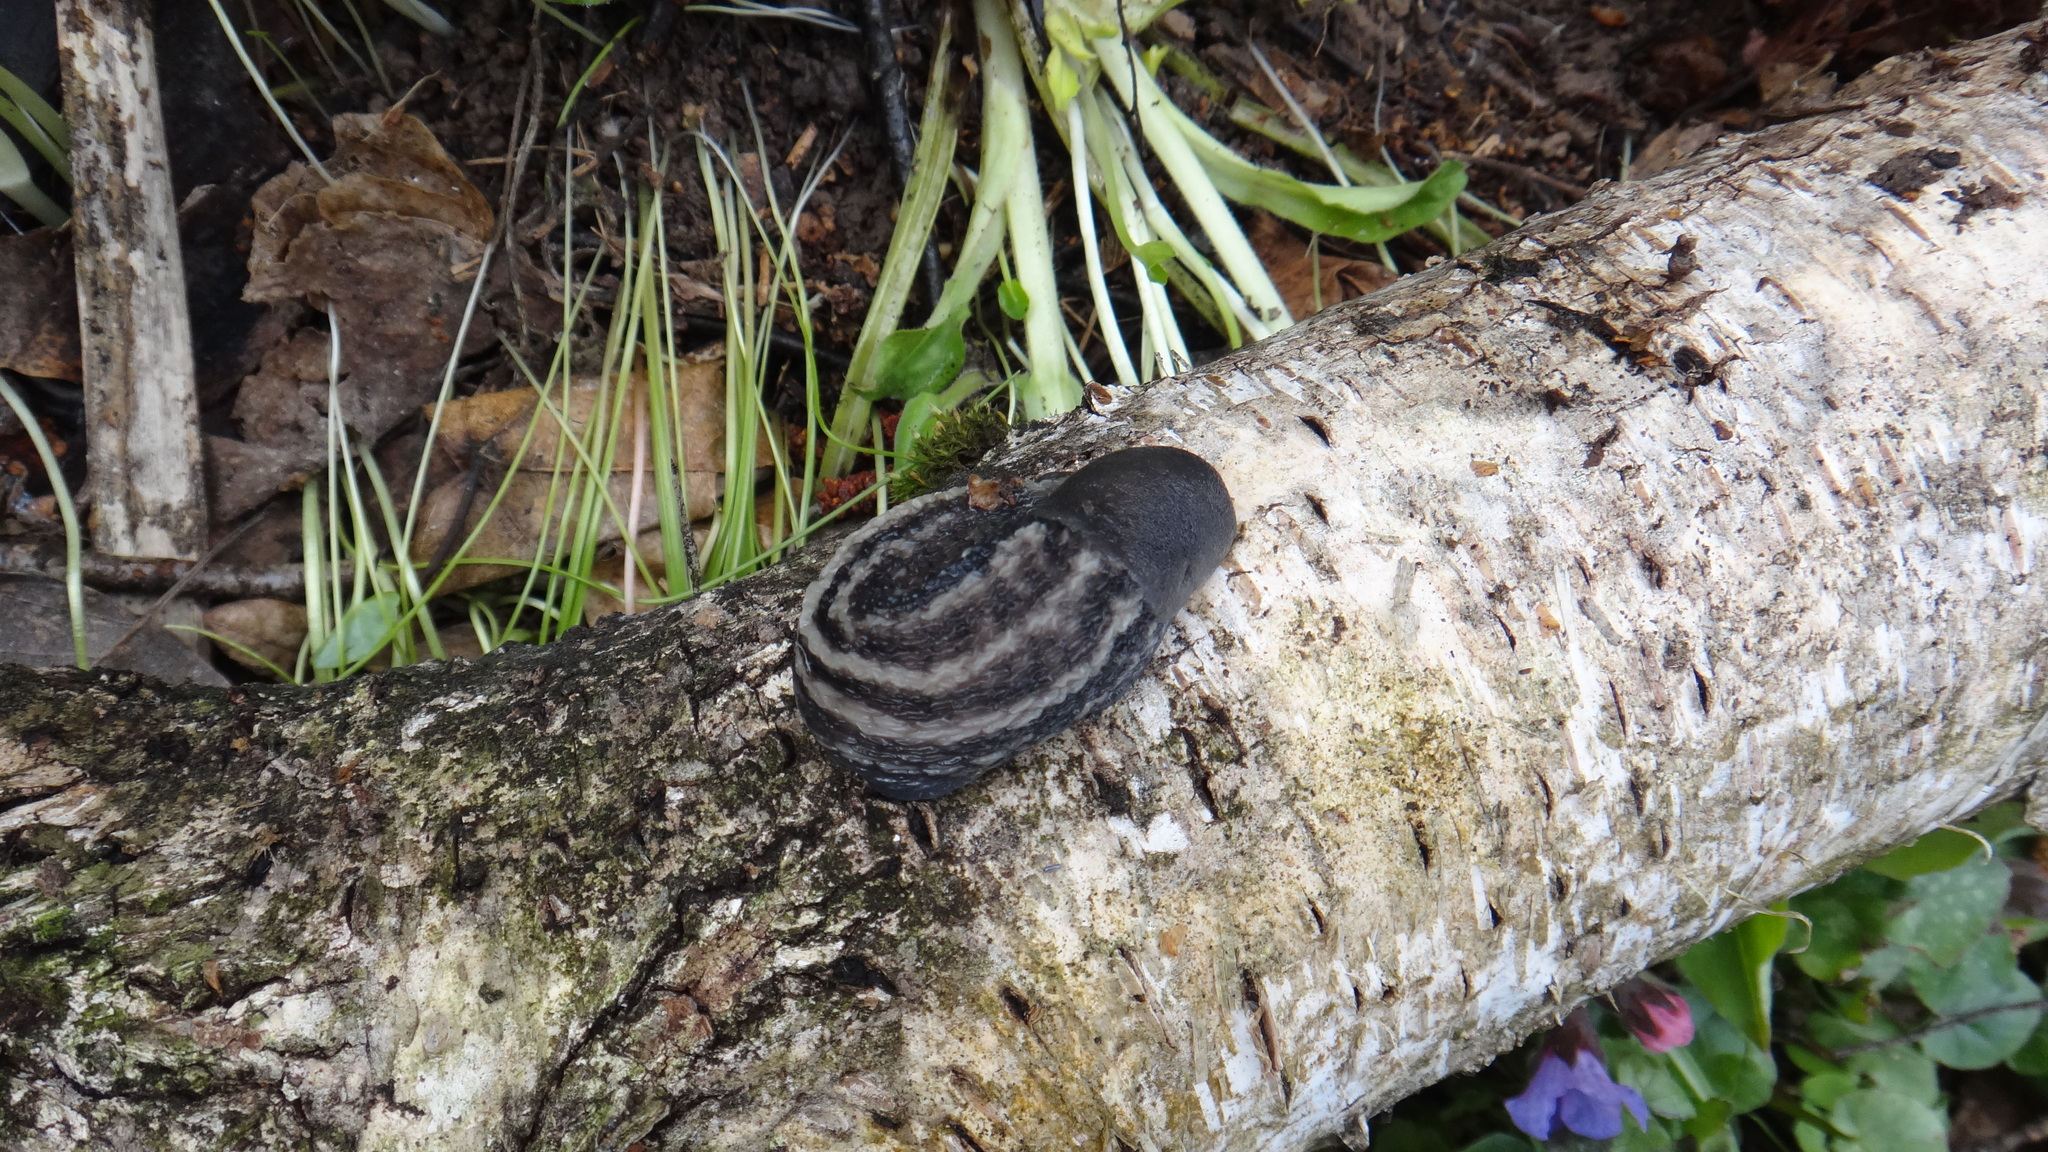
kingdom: Animalia
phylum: Mollusca
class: Gastropoda
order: Stylommatophora
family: Limacidae
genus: Limax
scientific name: Limax cinereoniger
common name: Ash-black slug
